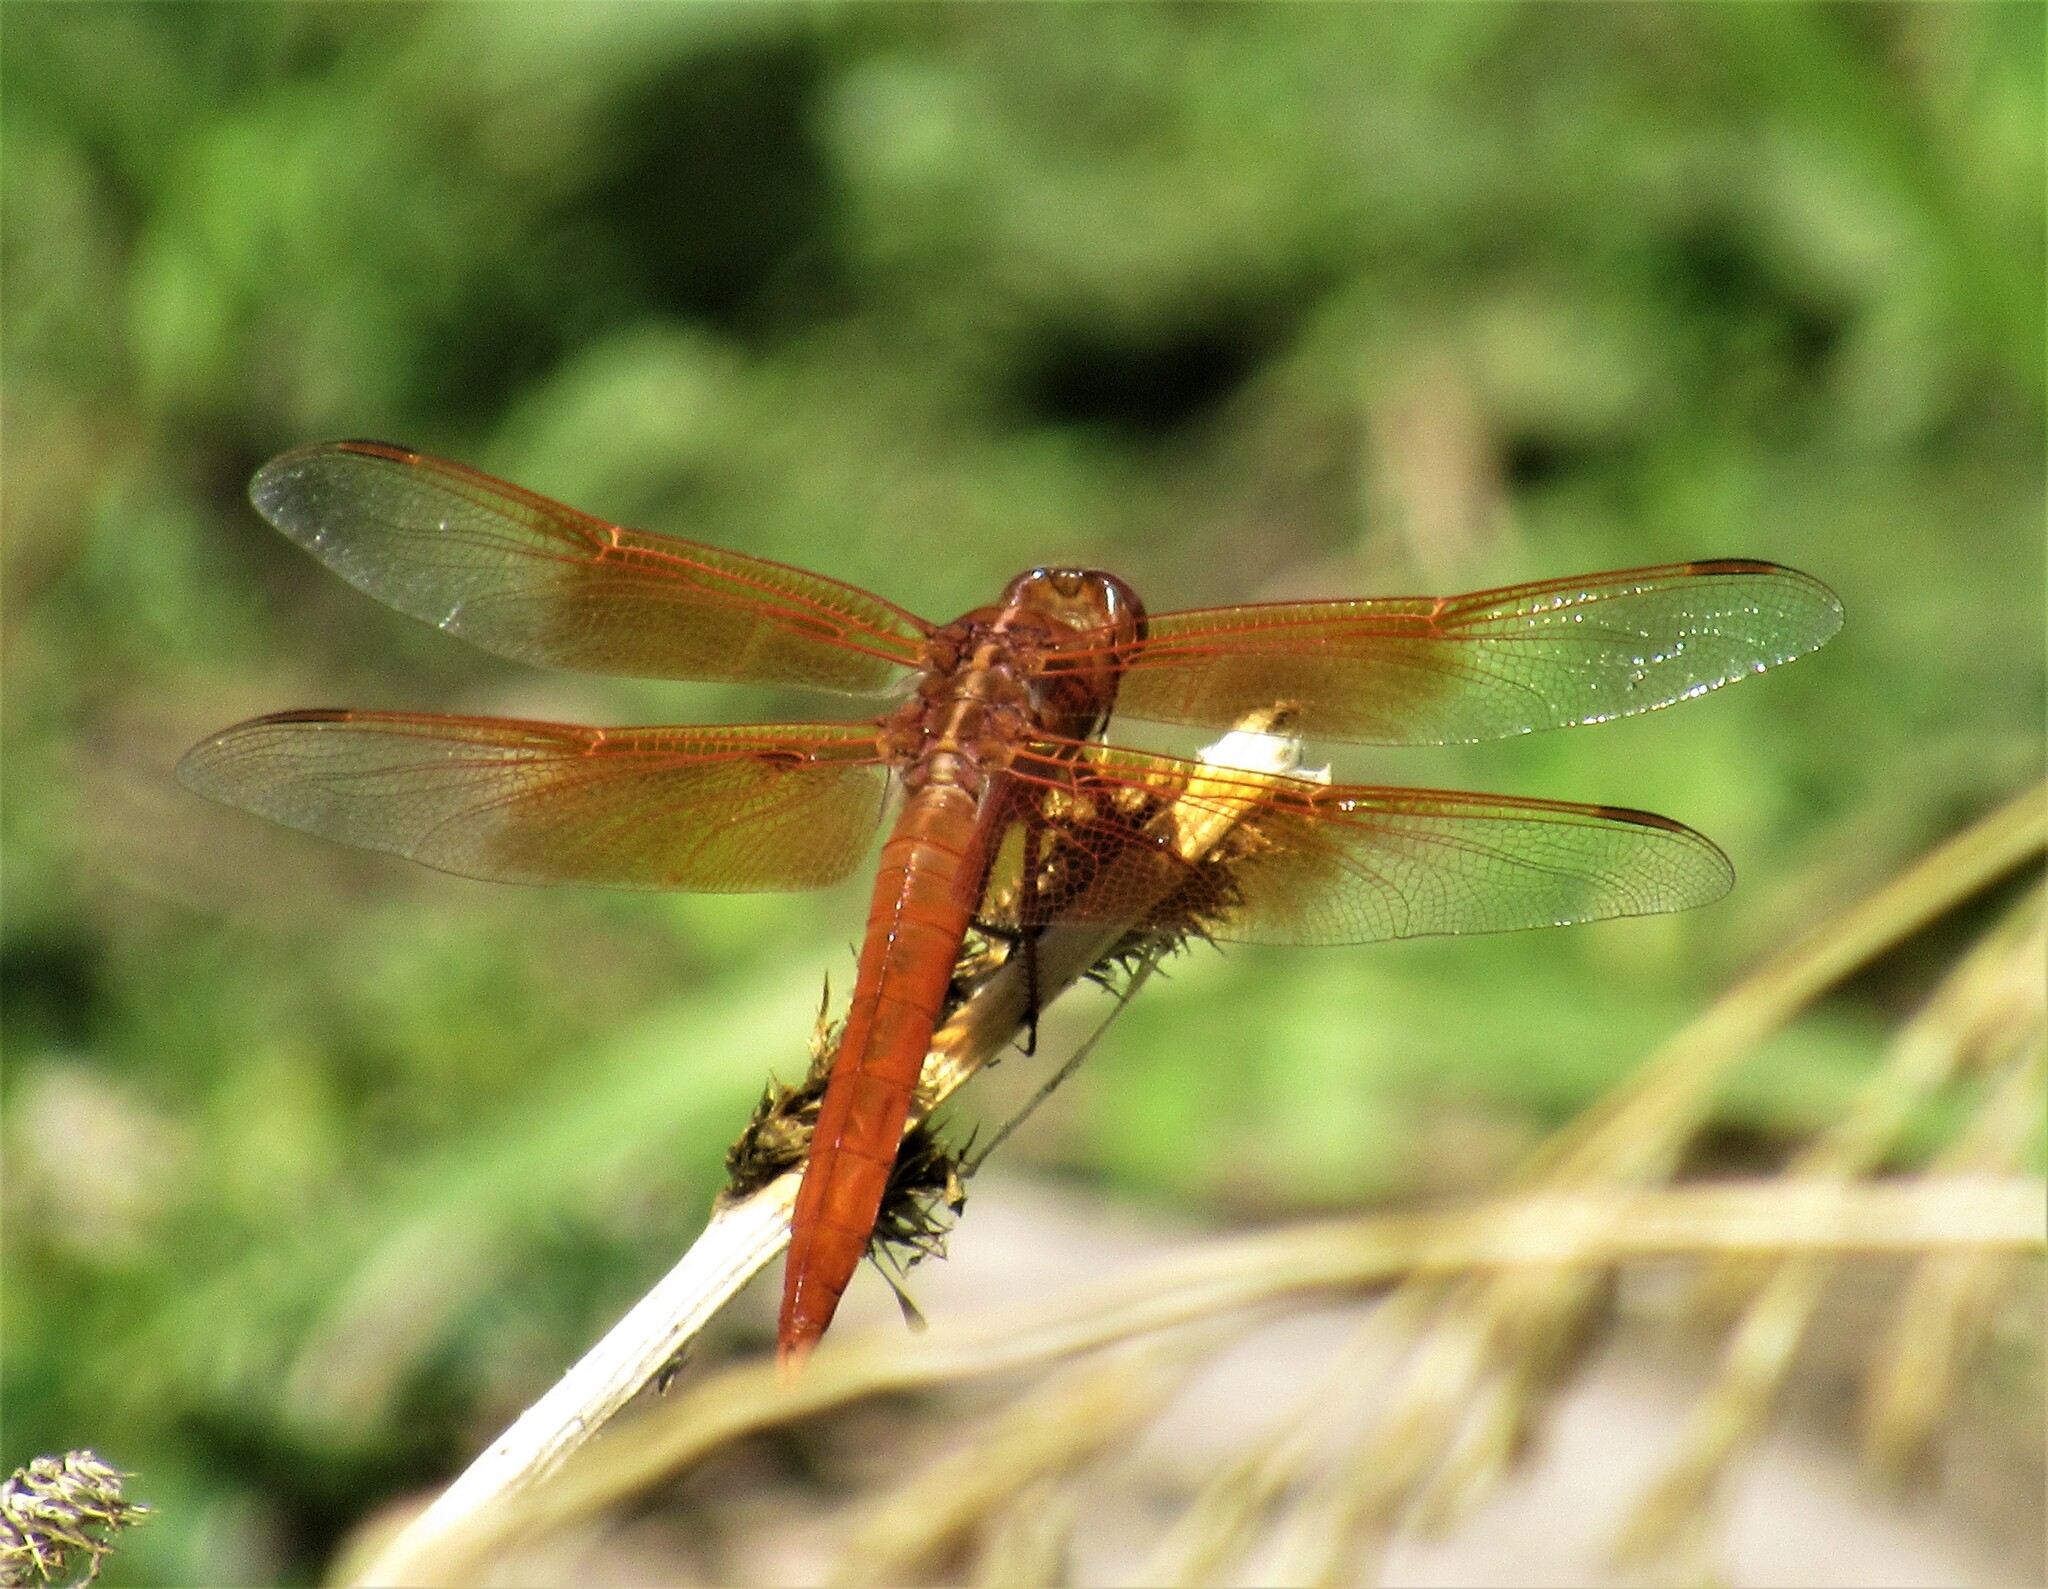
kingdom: Animalia
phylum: Arthropoda
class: Insecta
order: Odonata
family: Libellulidae
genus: Libellula
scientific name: Libellula saturata
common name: Flame skimmer
